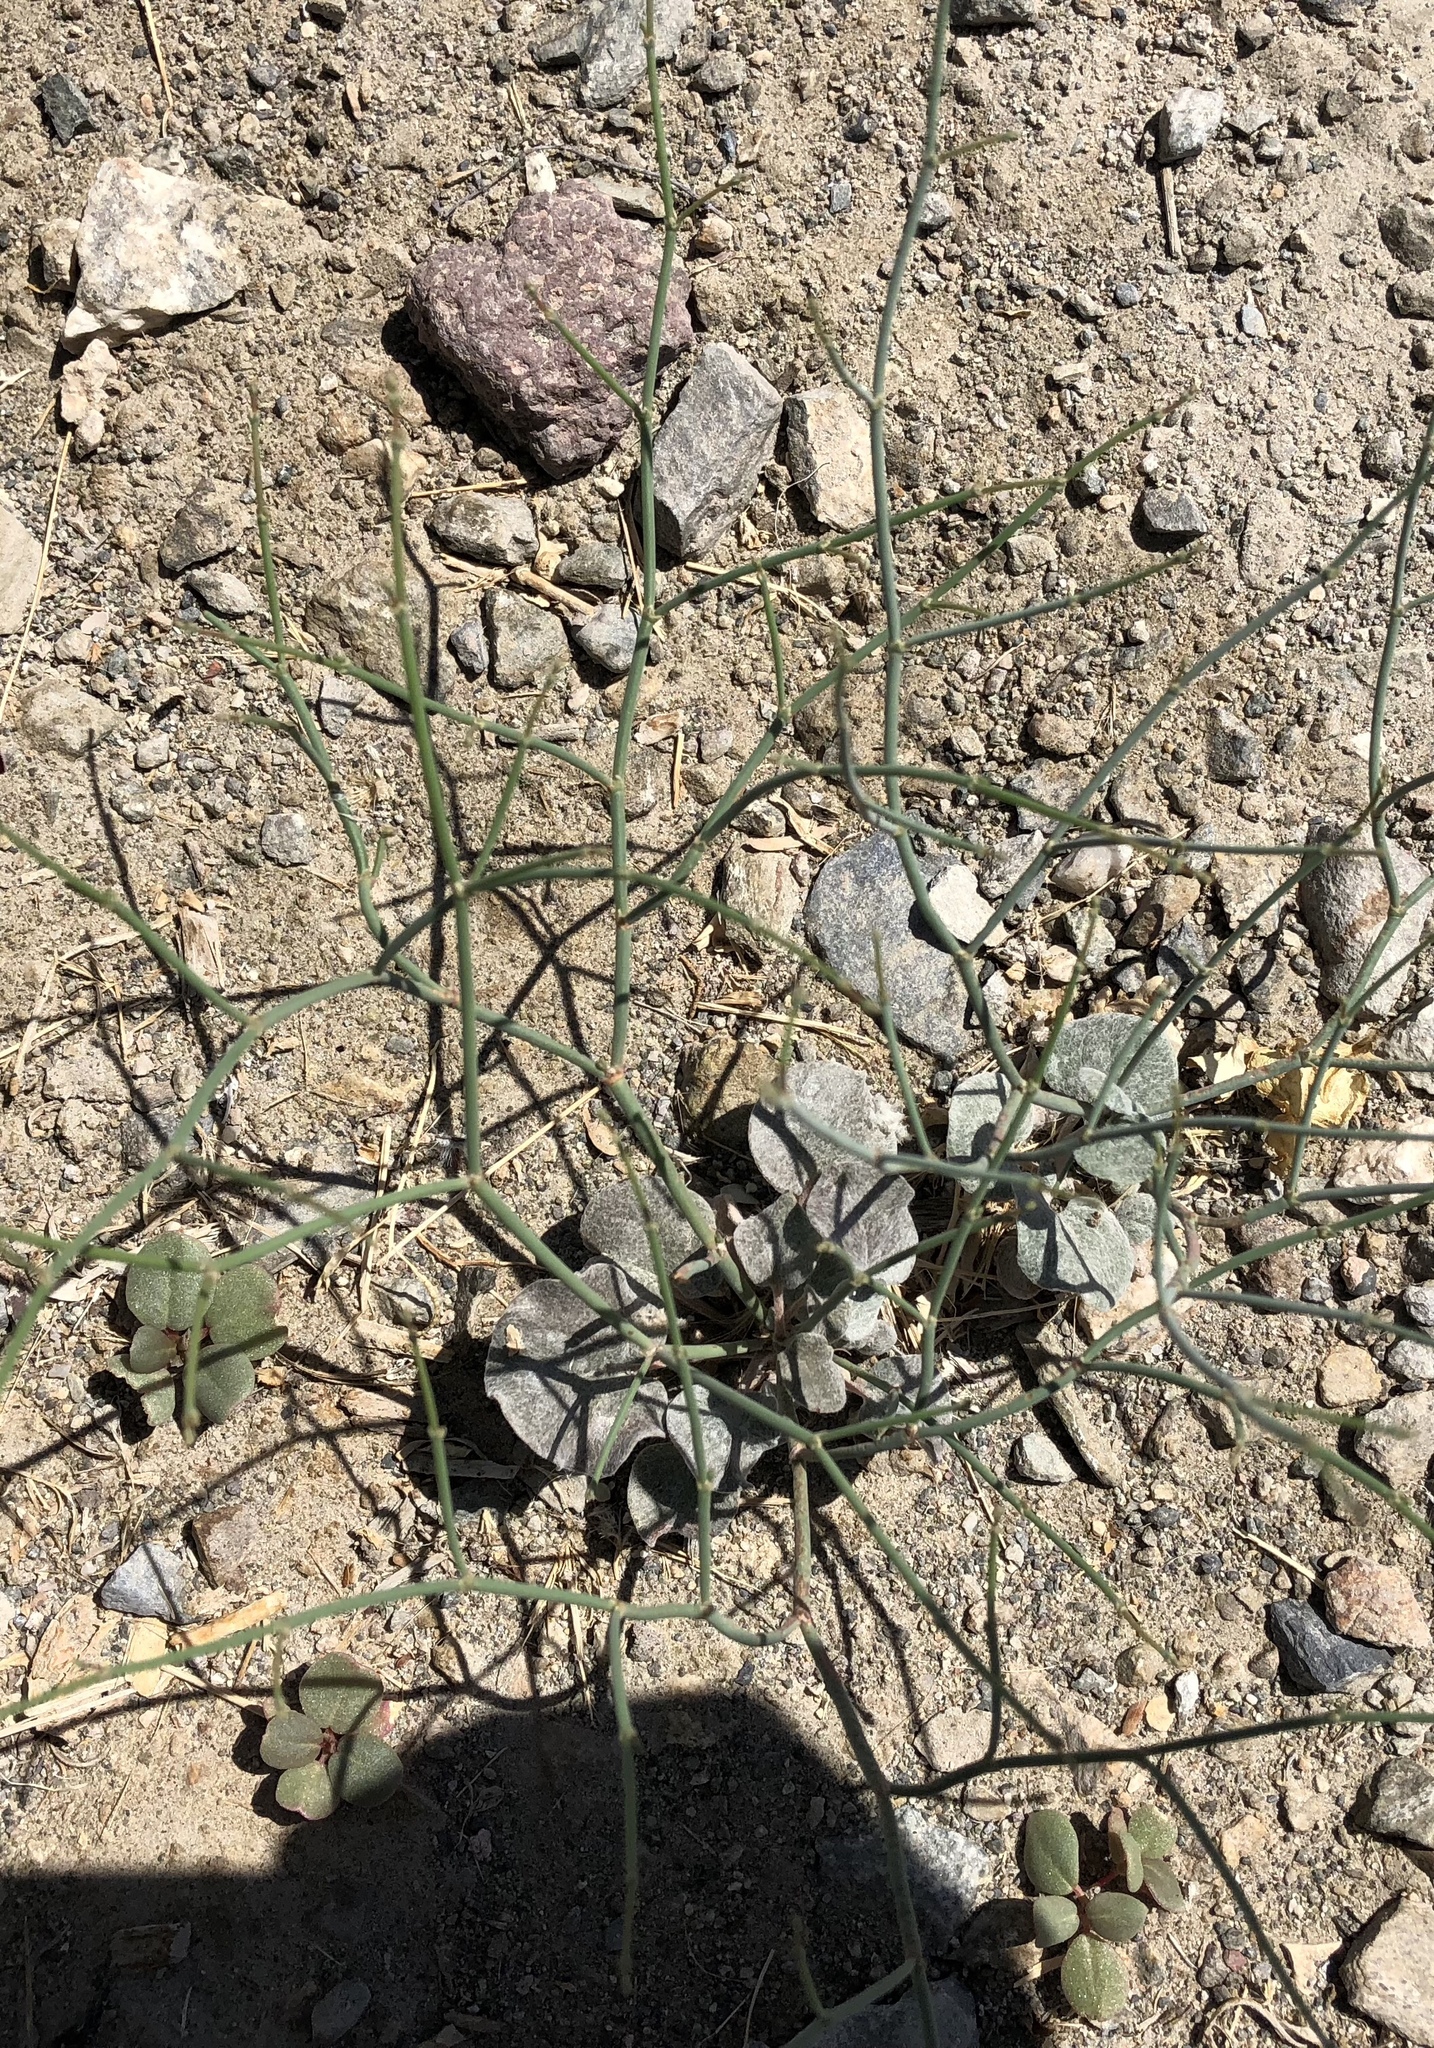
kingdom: Plantae
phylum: Tracheophyta
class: Magnoliopsida
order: Caryophyllales
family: Polygonaceae
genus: Eriogonum
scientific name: Eriogonum deflexum
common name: Skeleton-weed
